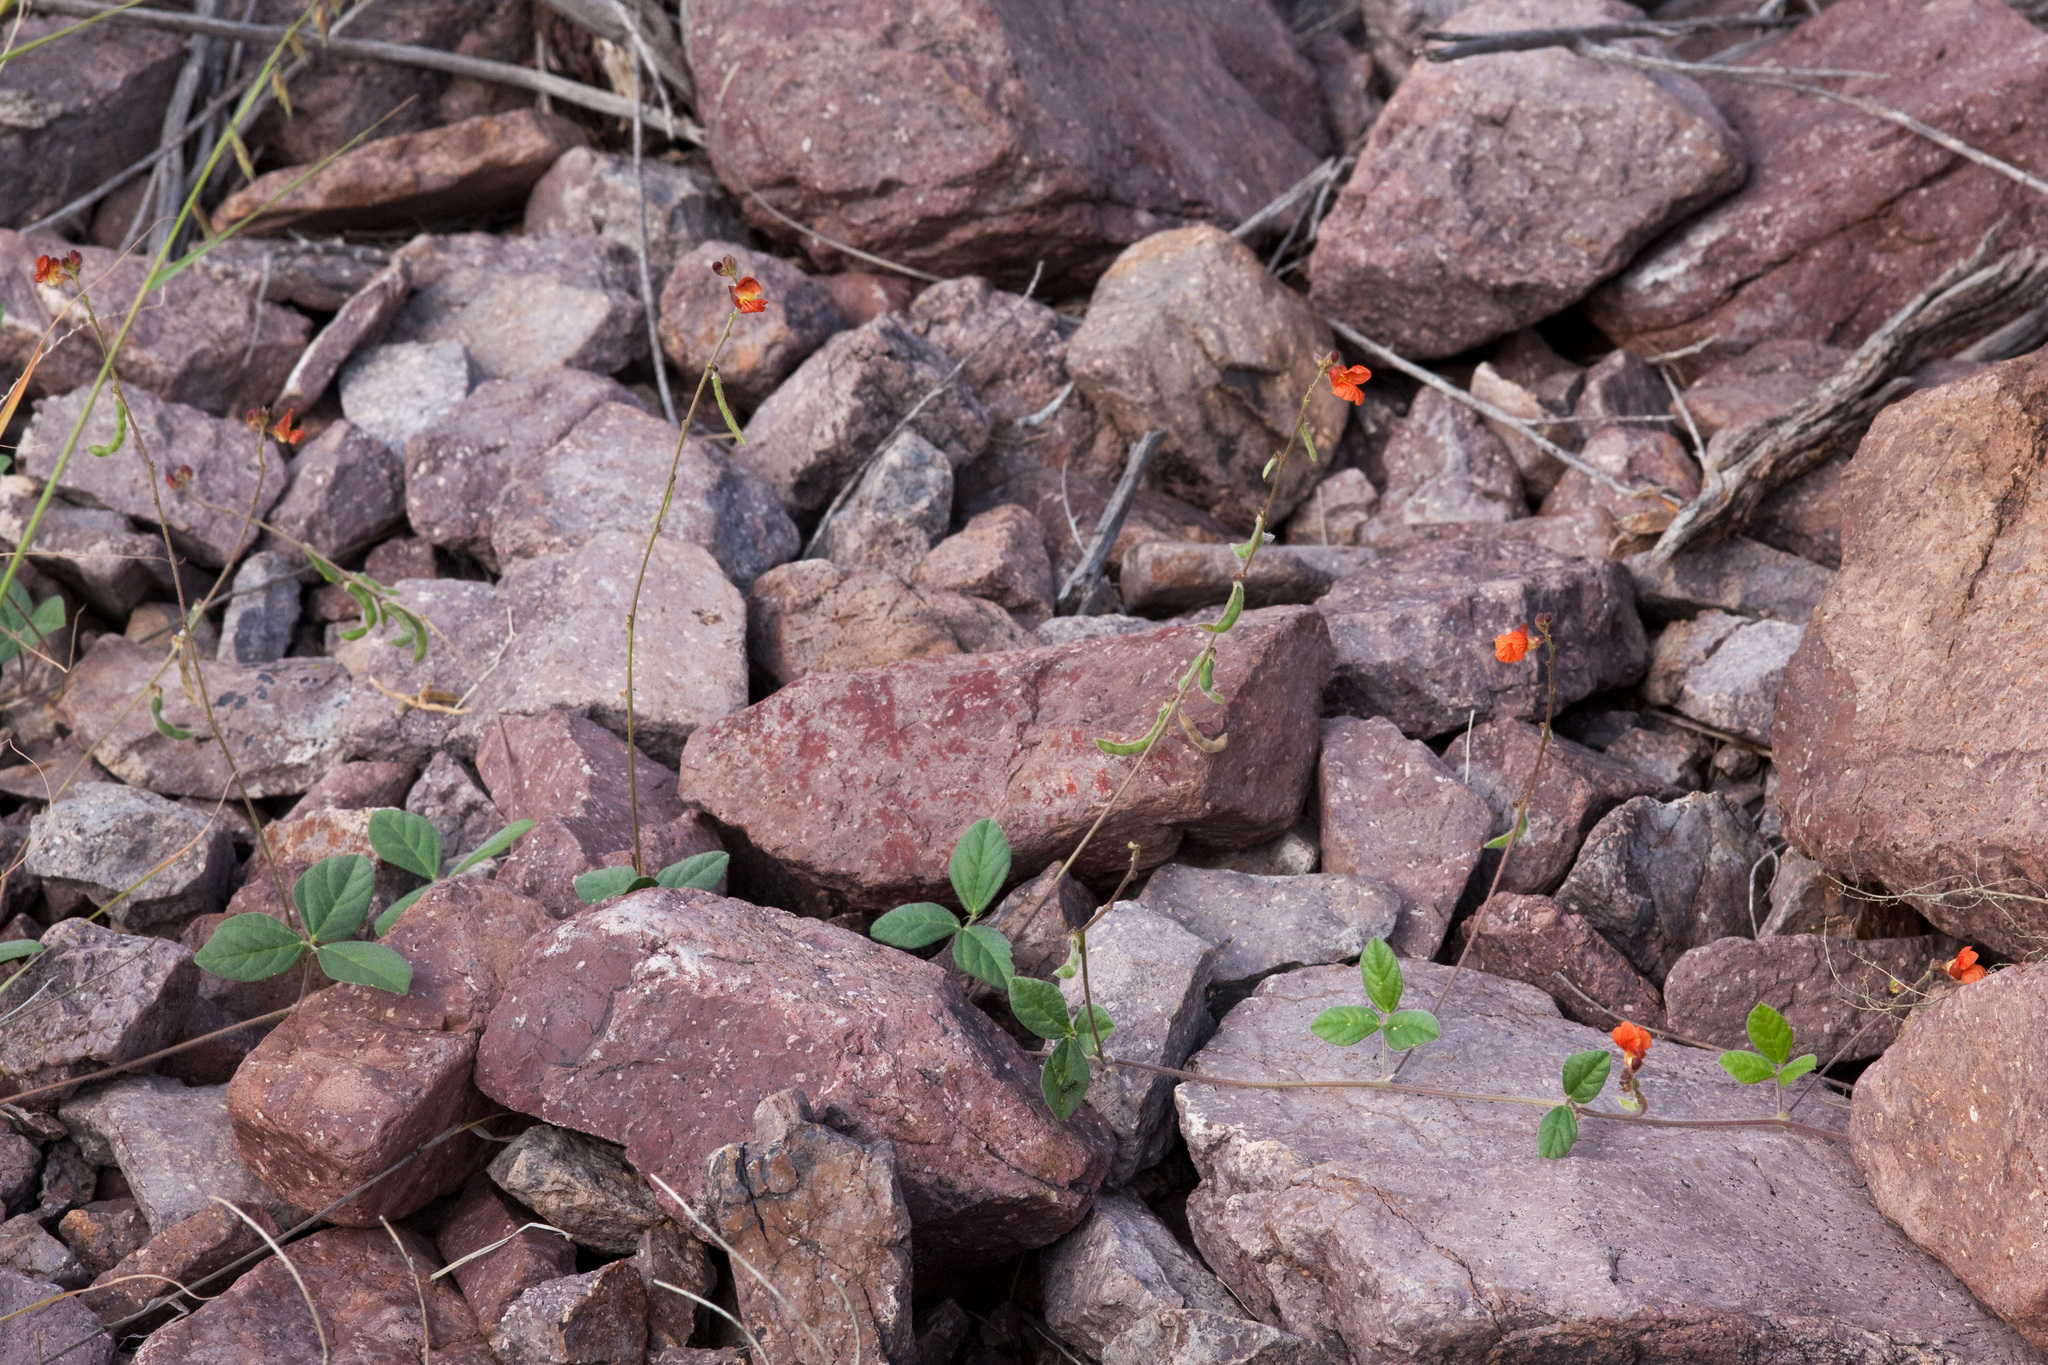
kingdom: Plantae
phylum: Tracheophyta
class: Magnoliopsida
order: Fabales
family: Fabaceae
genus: Macroptilium
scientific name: Macroptilium gibbosifolium
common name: Variableleaf bushbean
